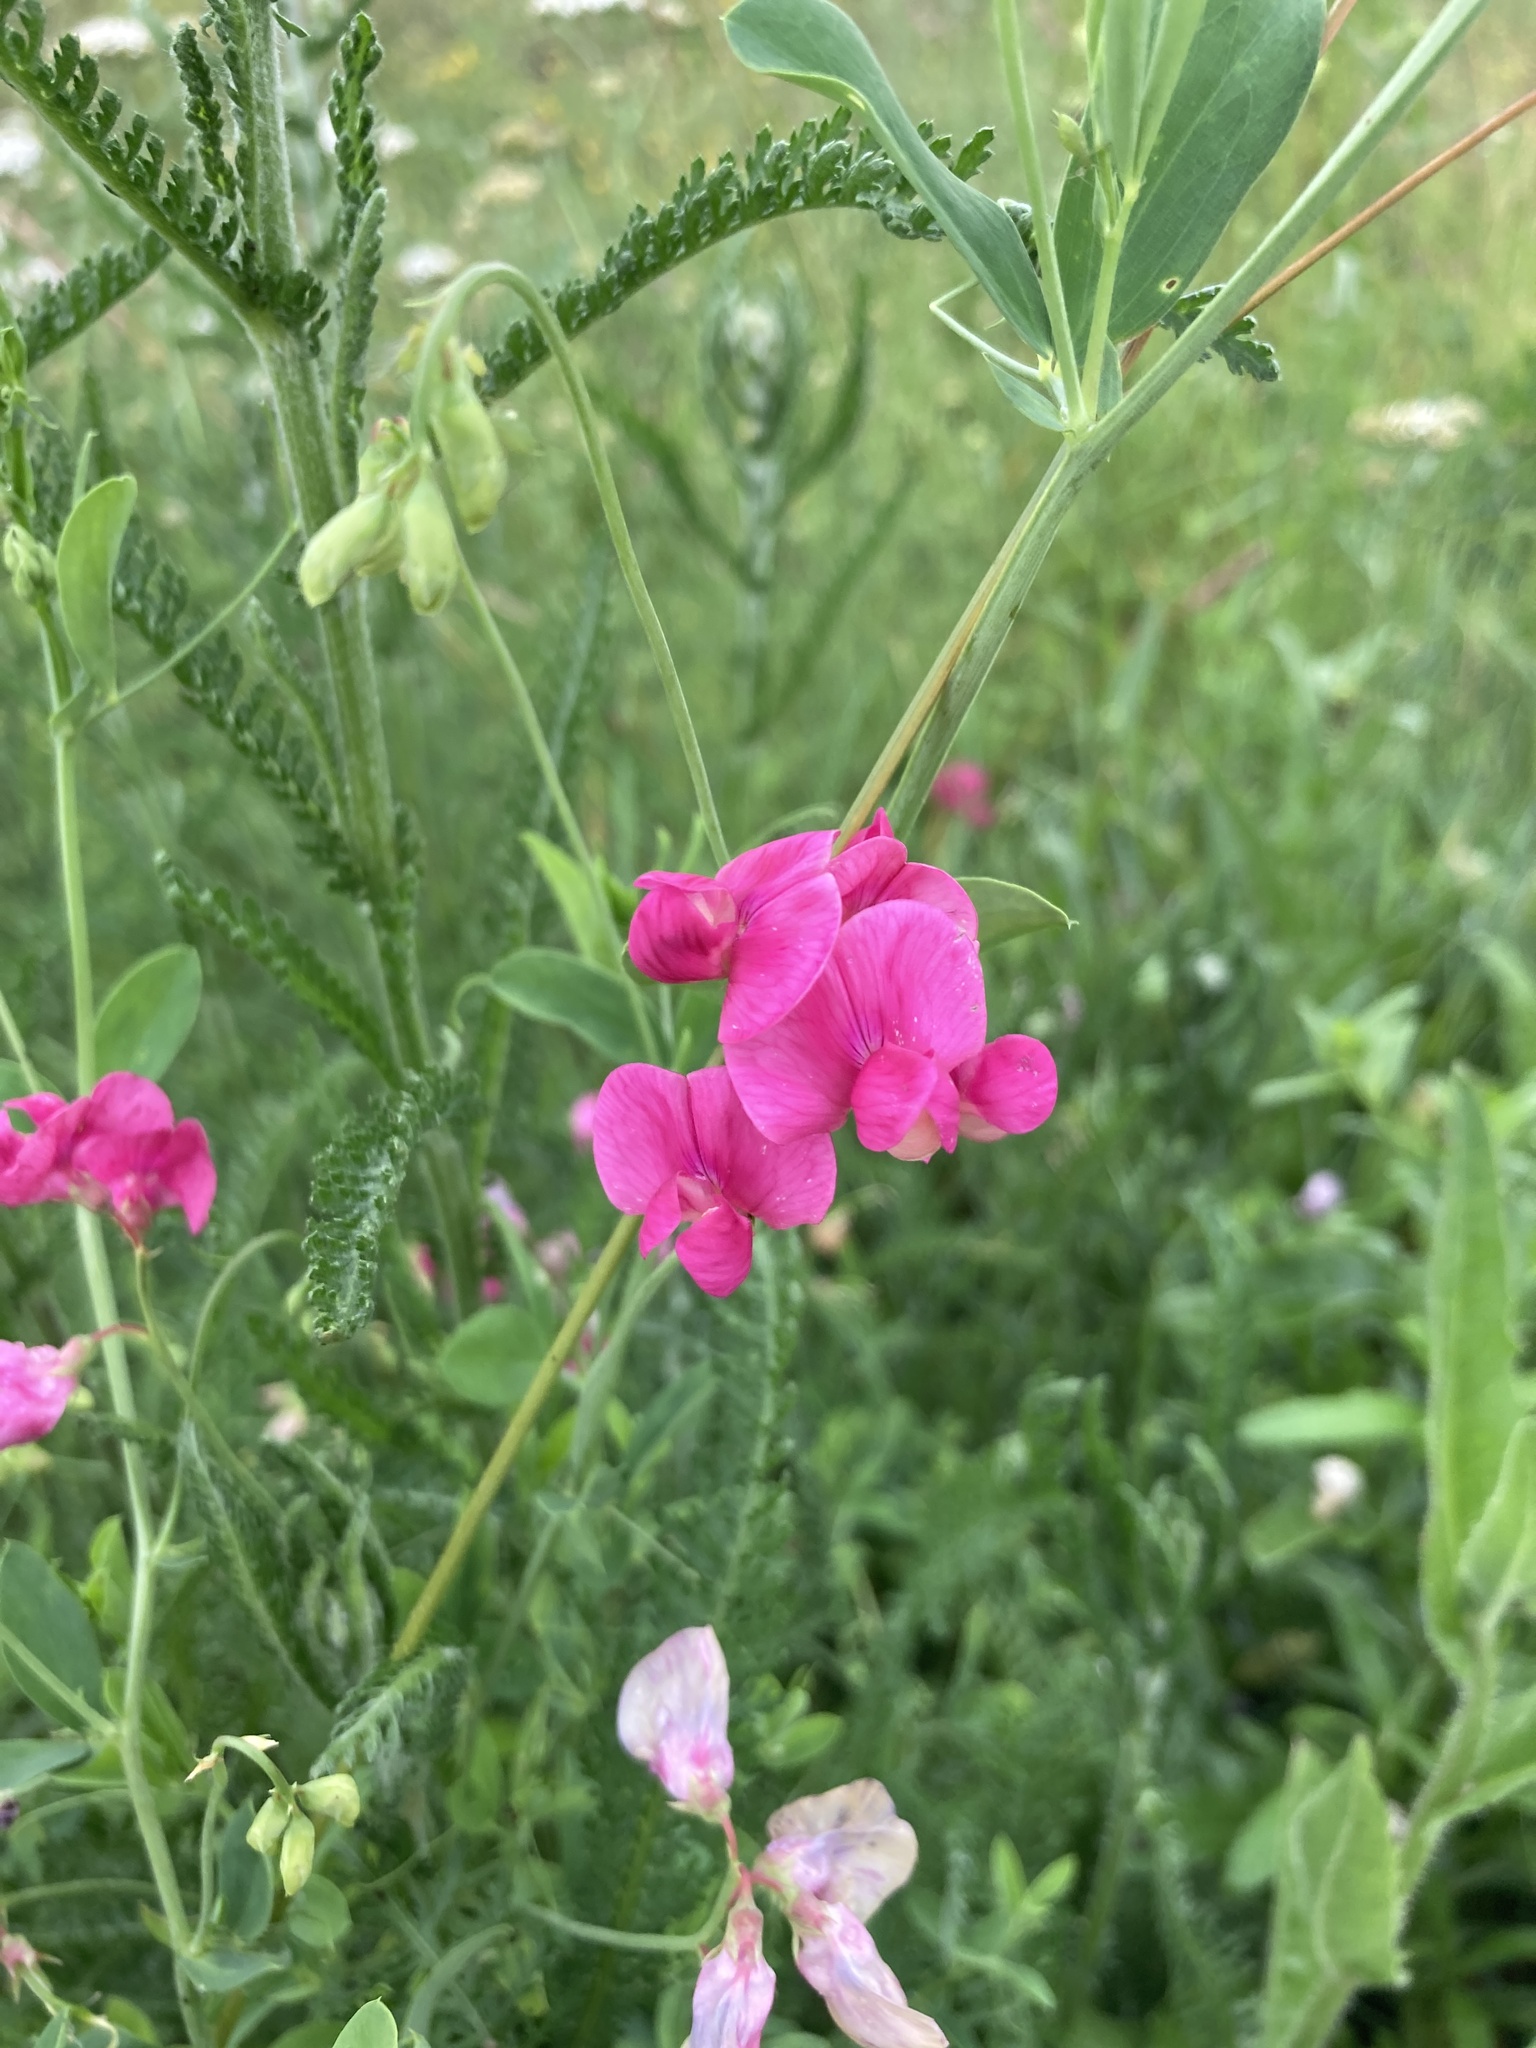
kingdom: Plantae
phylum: Tracheophyta
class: Magnoliopsida
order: Fabales
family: Fabaceae
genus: Lathyrus
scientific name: Lathyrus tuberosus
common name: Tuberous pea
